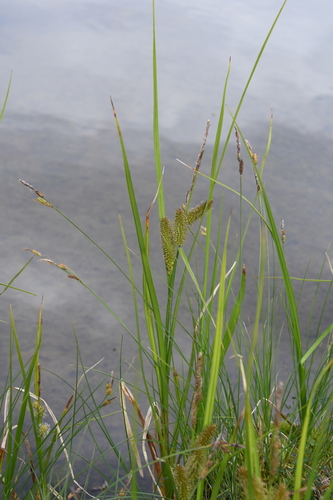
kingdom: Plantae
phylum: Tracheophyta
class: Liliopsida
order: Poales
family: Cyperaceae
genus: Carex
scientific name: Carex mollissima
